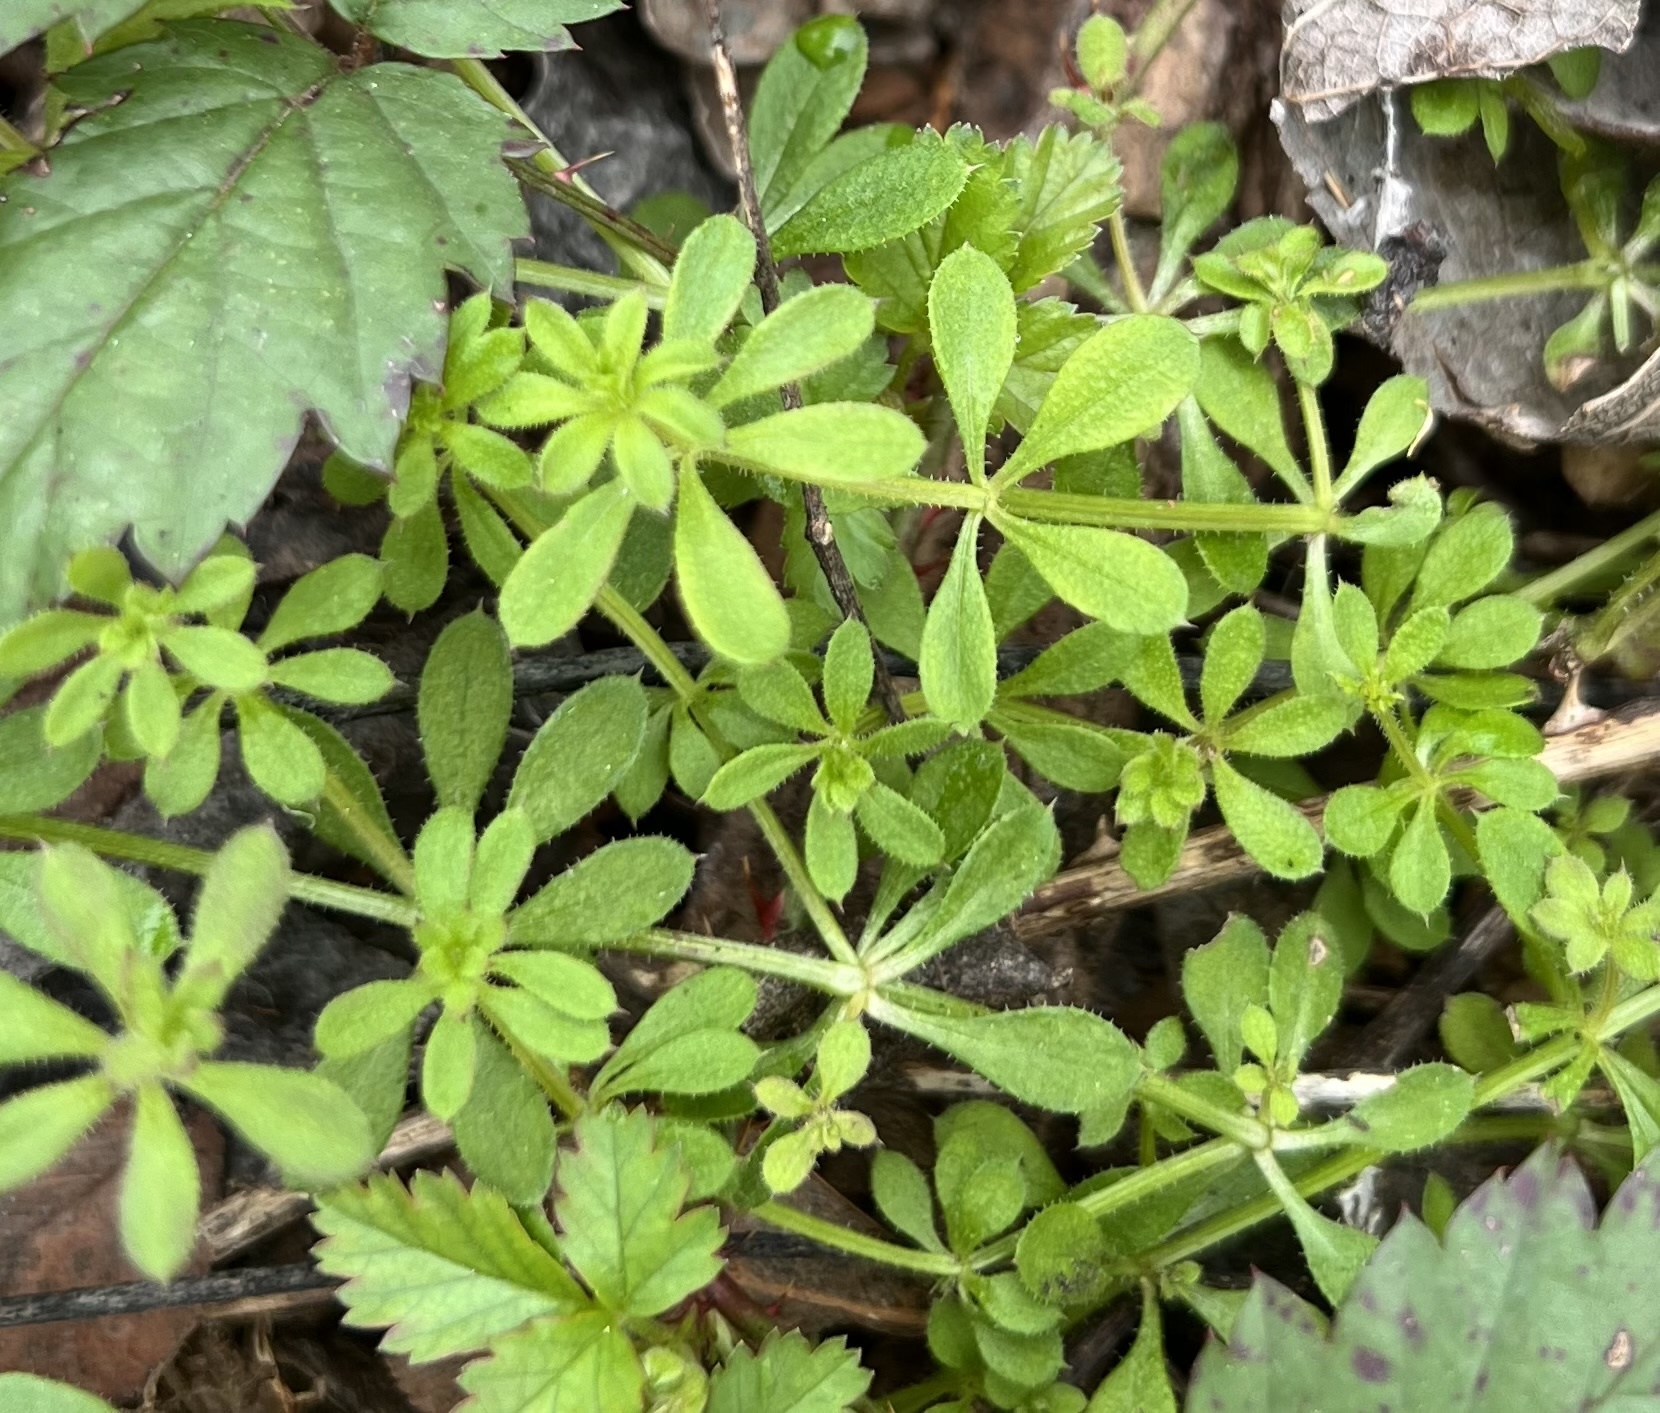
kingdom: Plantae
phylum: Tracheophyta
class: Magnoliopsida
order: Gentianales
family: Rubiaceae
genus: Galium
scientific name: Galium aparine
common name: Cleavers
